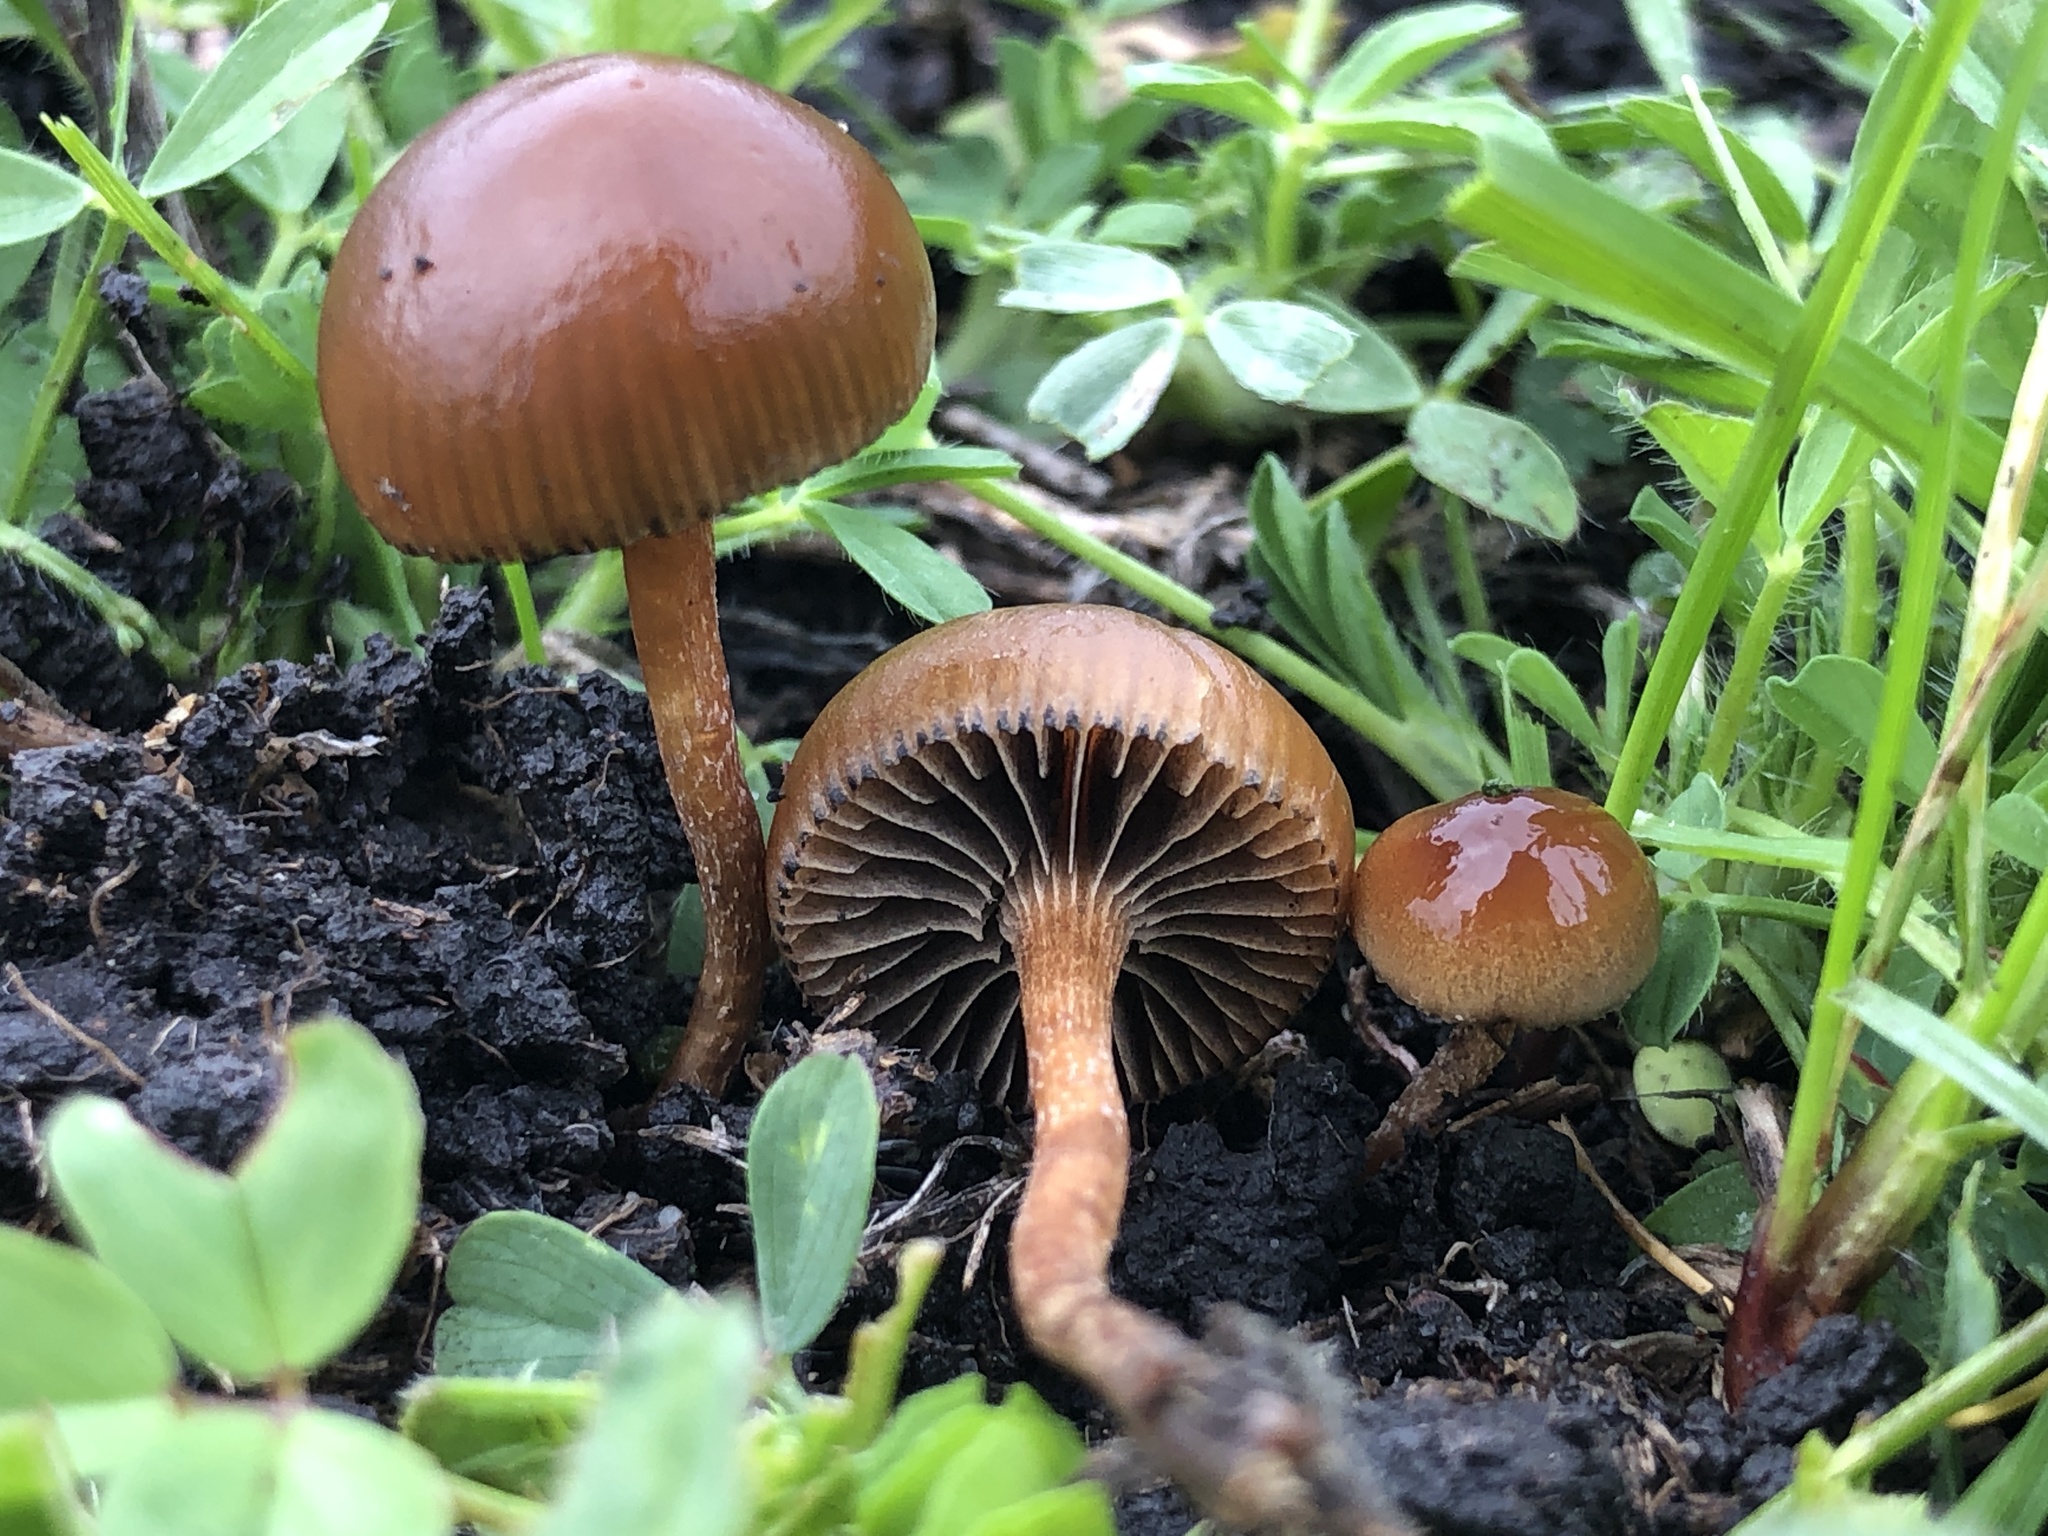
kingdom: Fungi
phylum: Basidiomycota
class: Agaricomycetes
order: Agaricales
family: Strophariaceae
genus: Deconica
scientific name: Deconica coprophila
